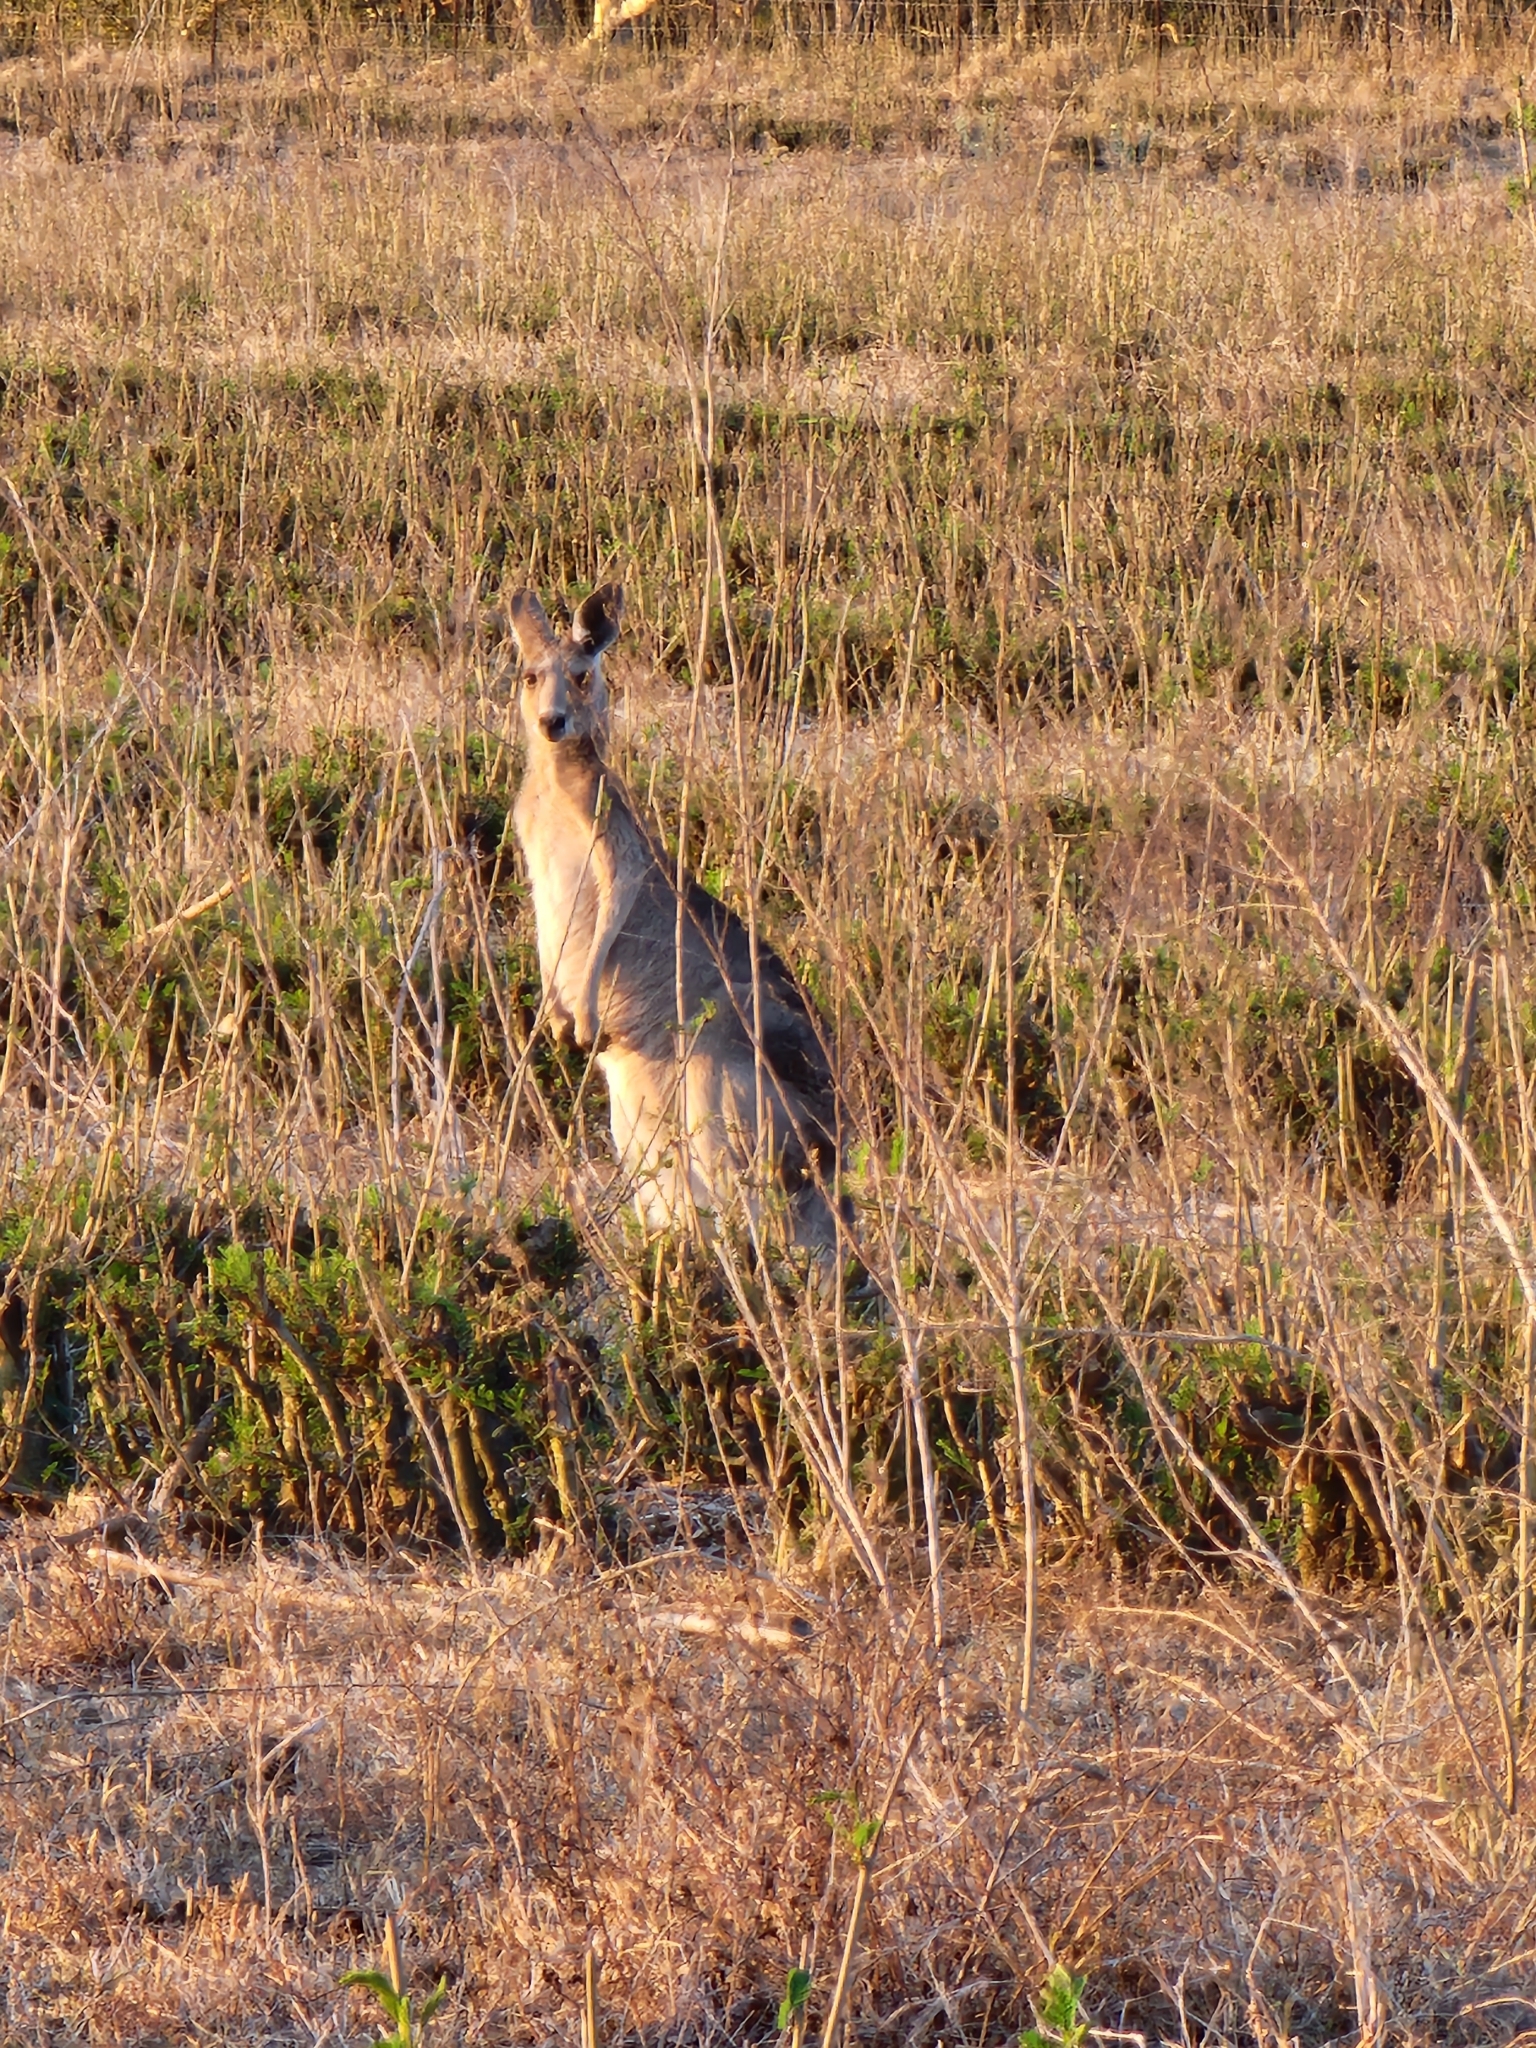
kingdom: Animalia
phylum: Chordata
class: Mammalia
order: Diprotodontia
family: Macropodidae
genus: Macropus
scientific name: Macropus giganteus
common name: Eastern grey kangaroo
